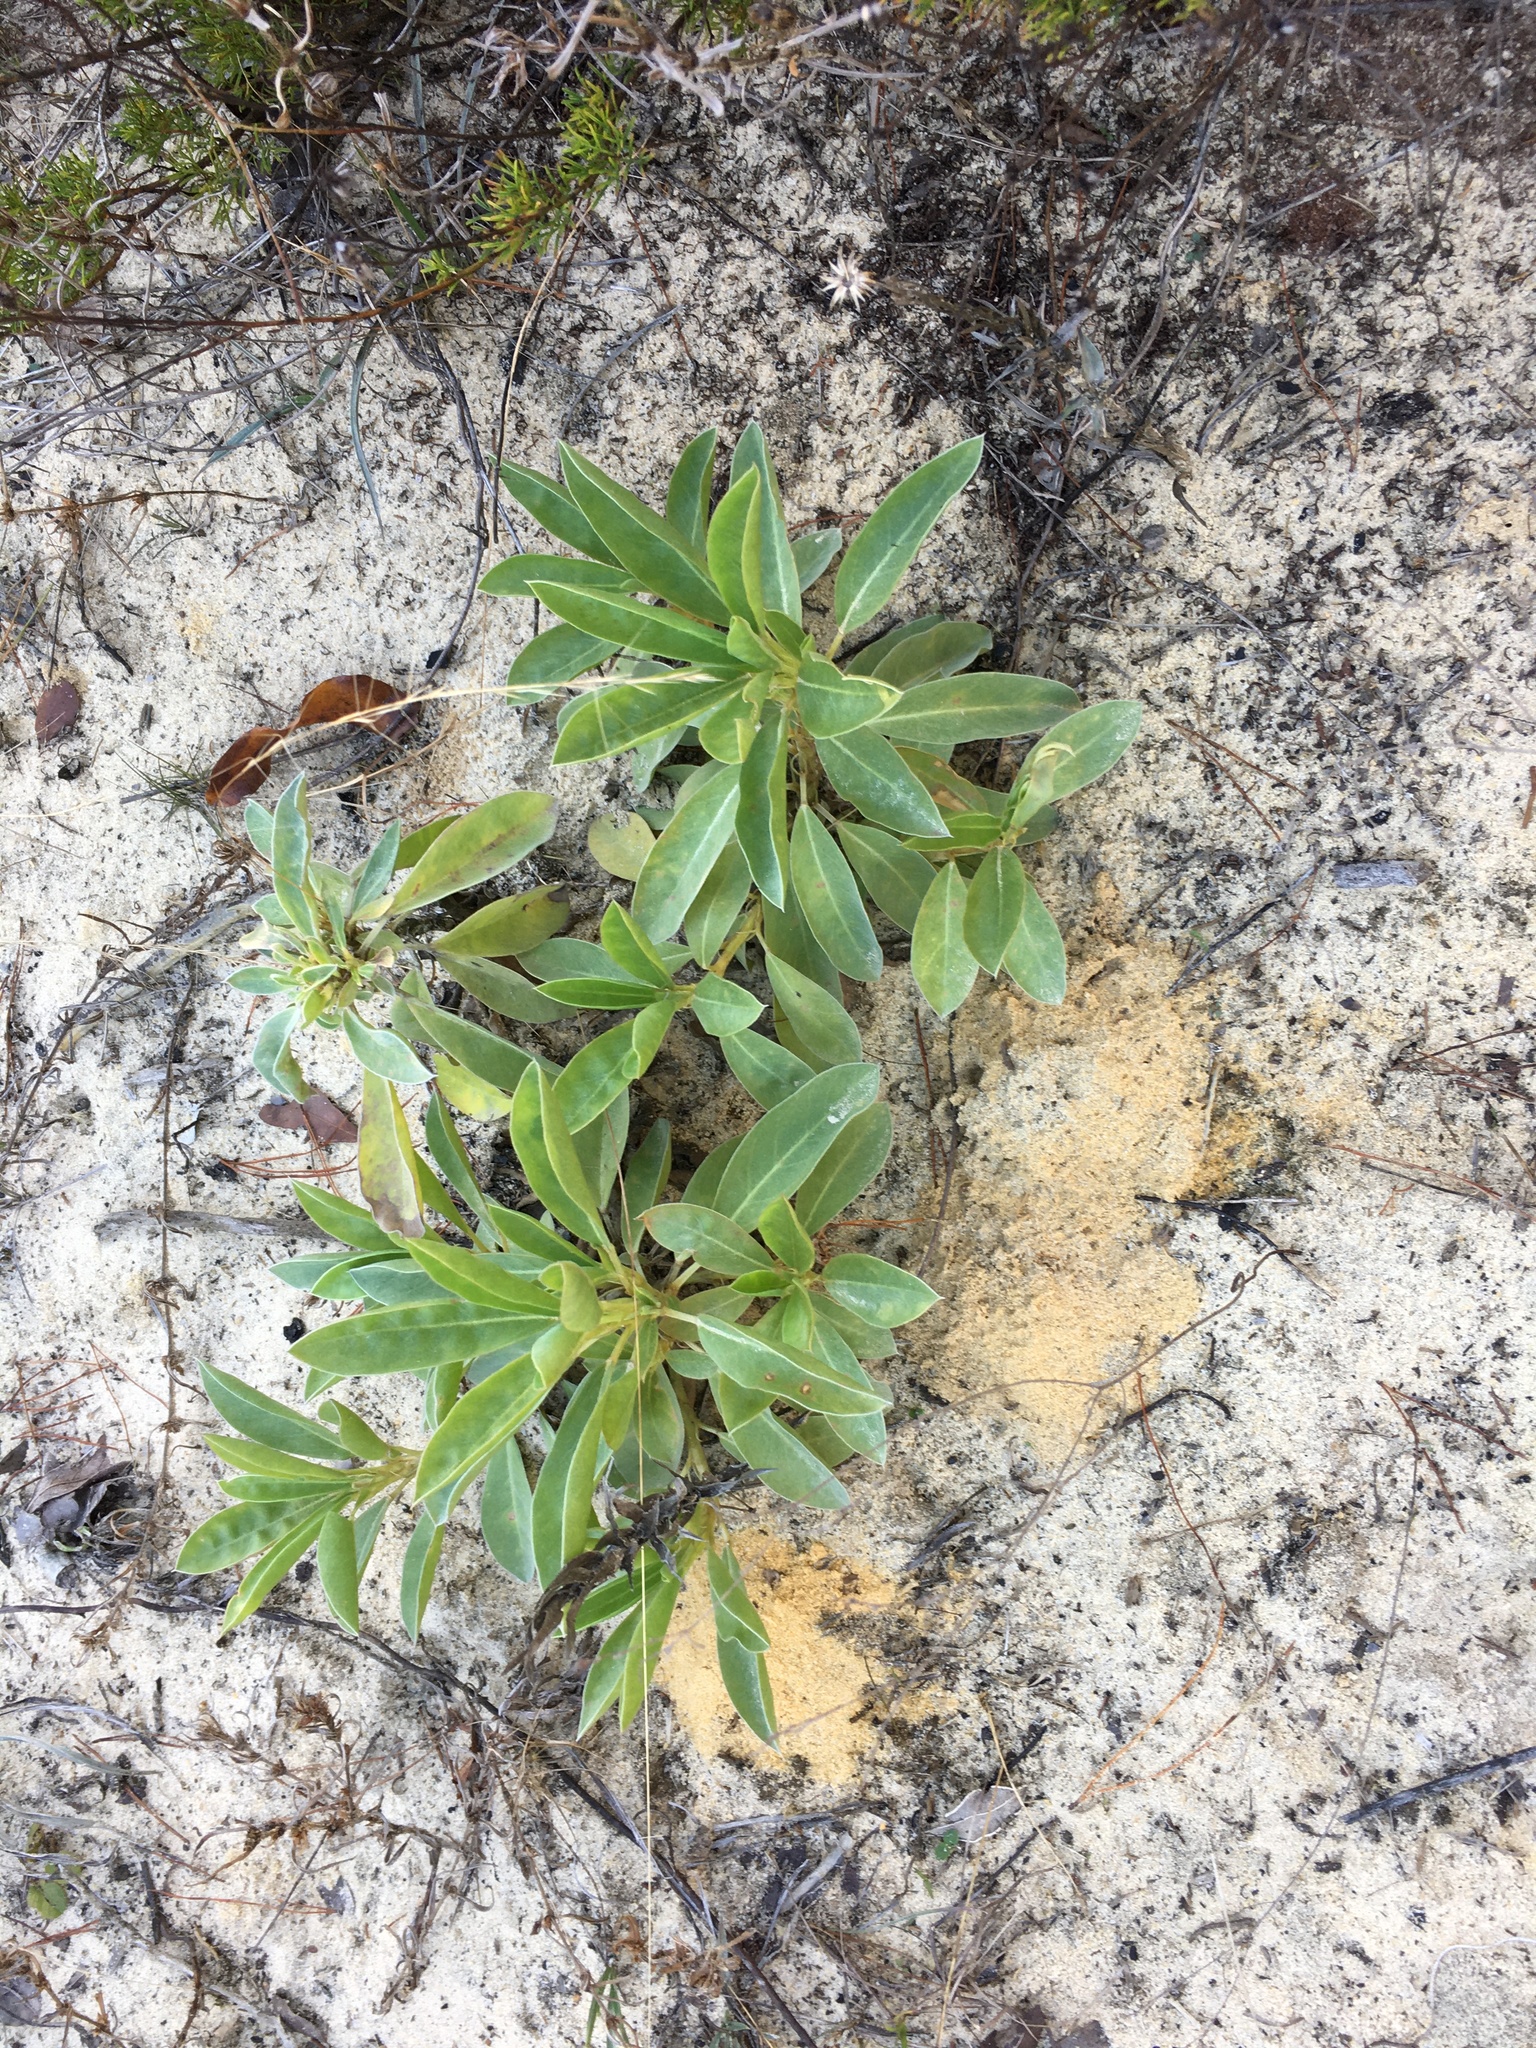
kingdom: Plantae
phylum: Tracheophyta
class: Magnoliopsida
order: Fabales
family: Fabaceae
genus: Lupinus
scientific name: Lupinus
